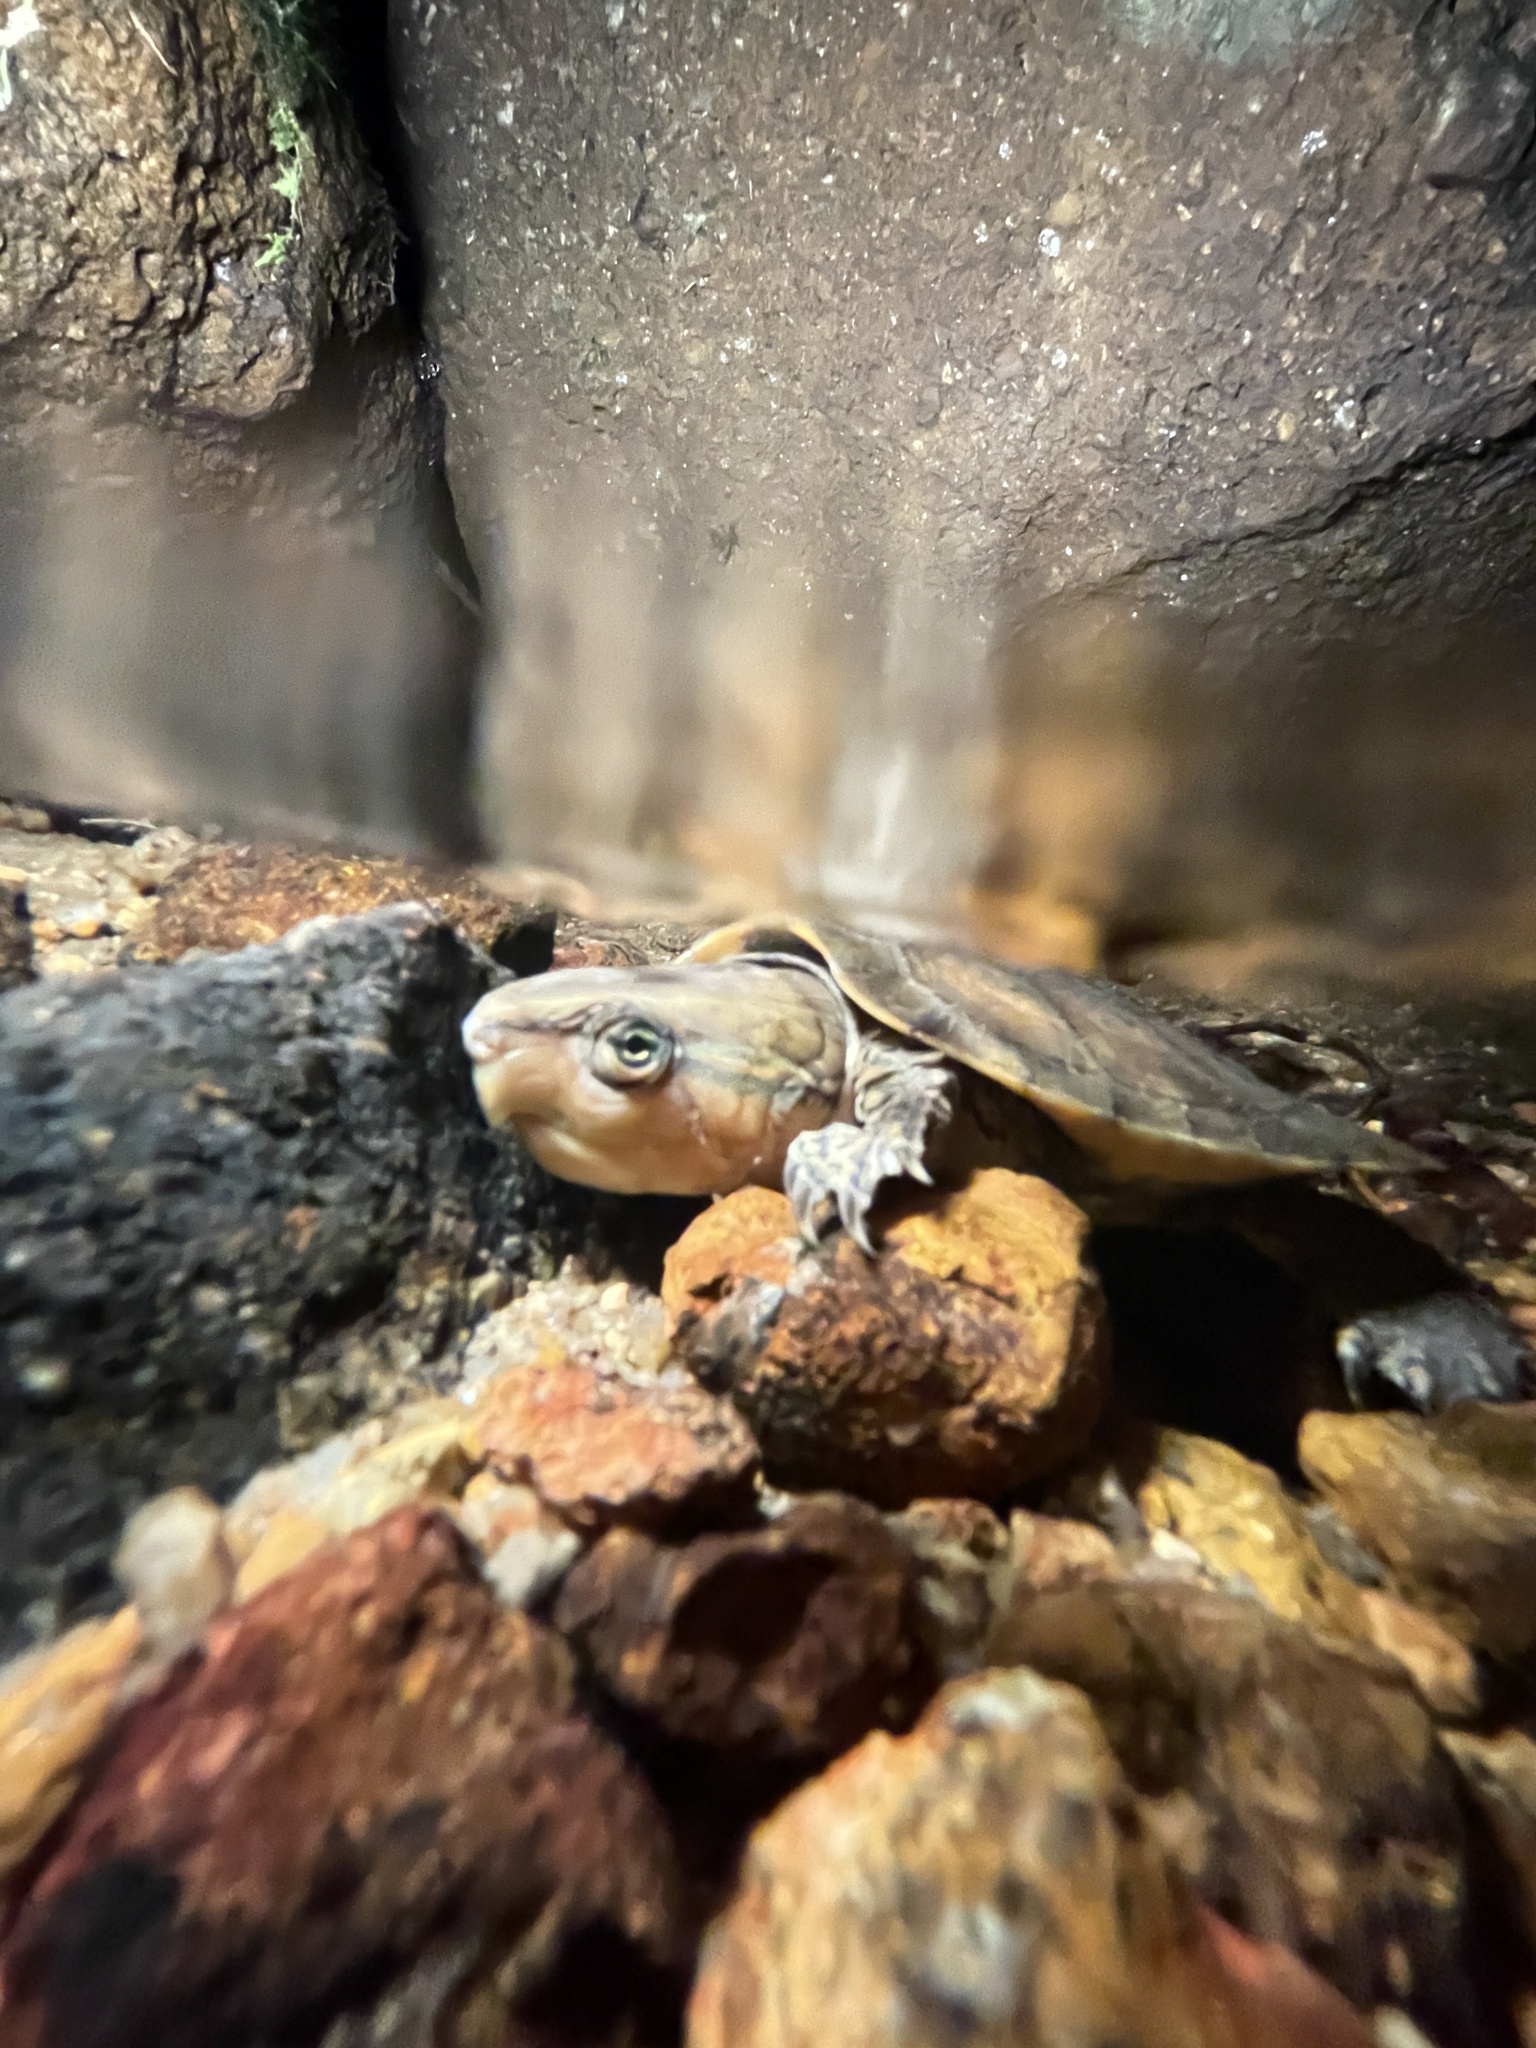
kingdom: Animalia
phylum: Chordata
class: Testudines
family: Platysternidae
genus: Platysternon
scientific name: Platysternon megacephalum
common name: Big-headed turtle
